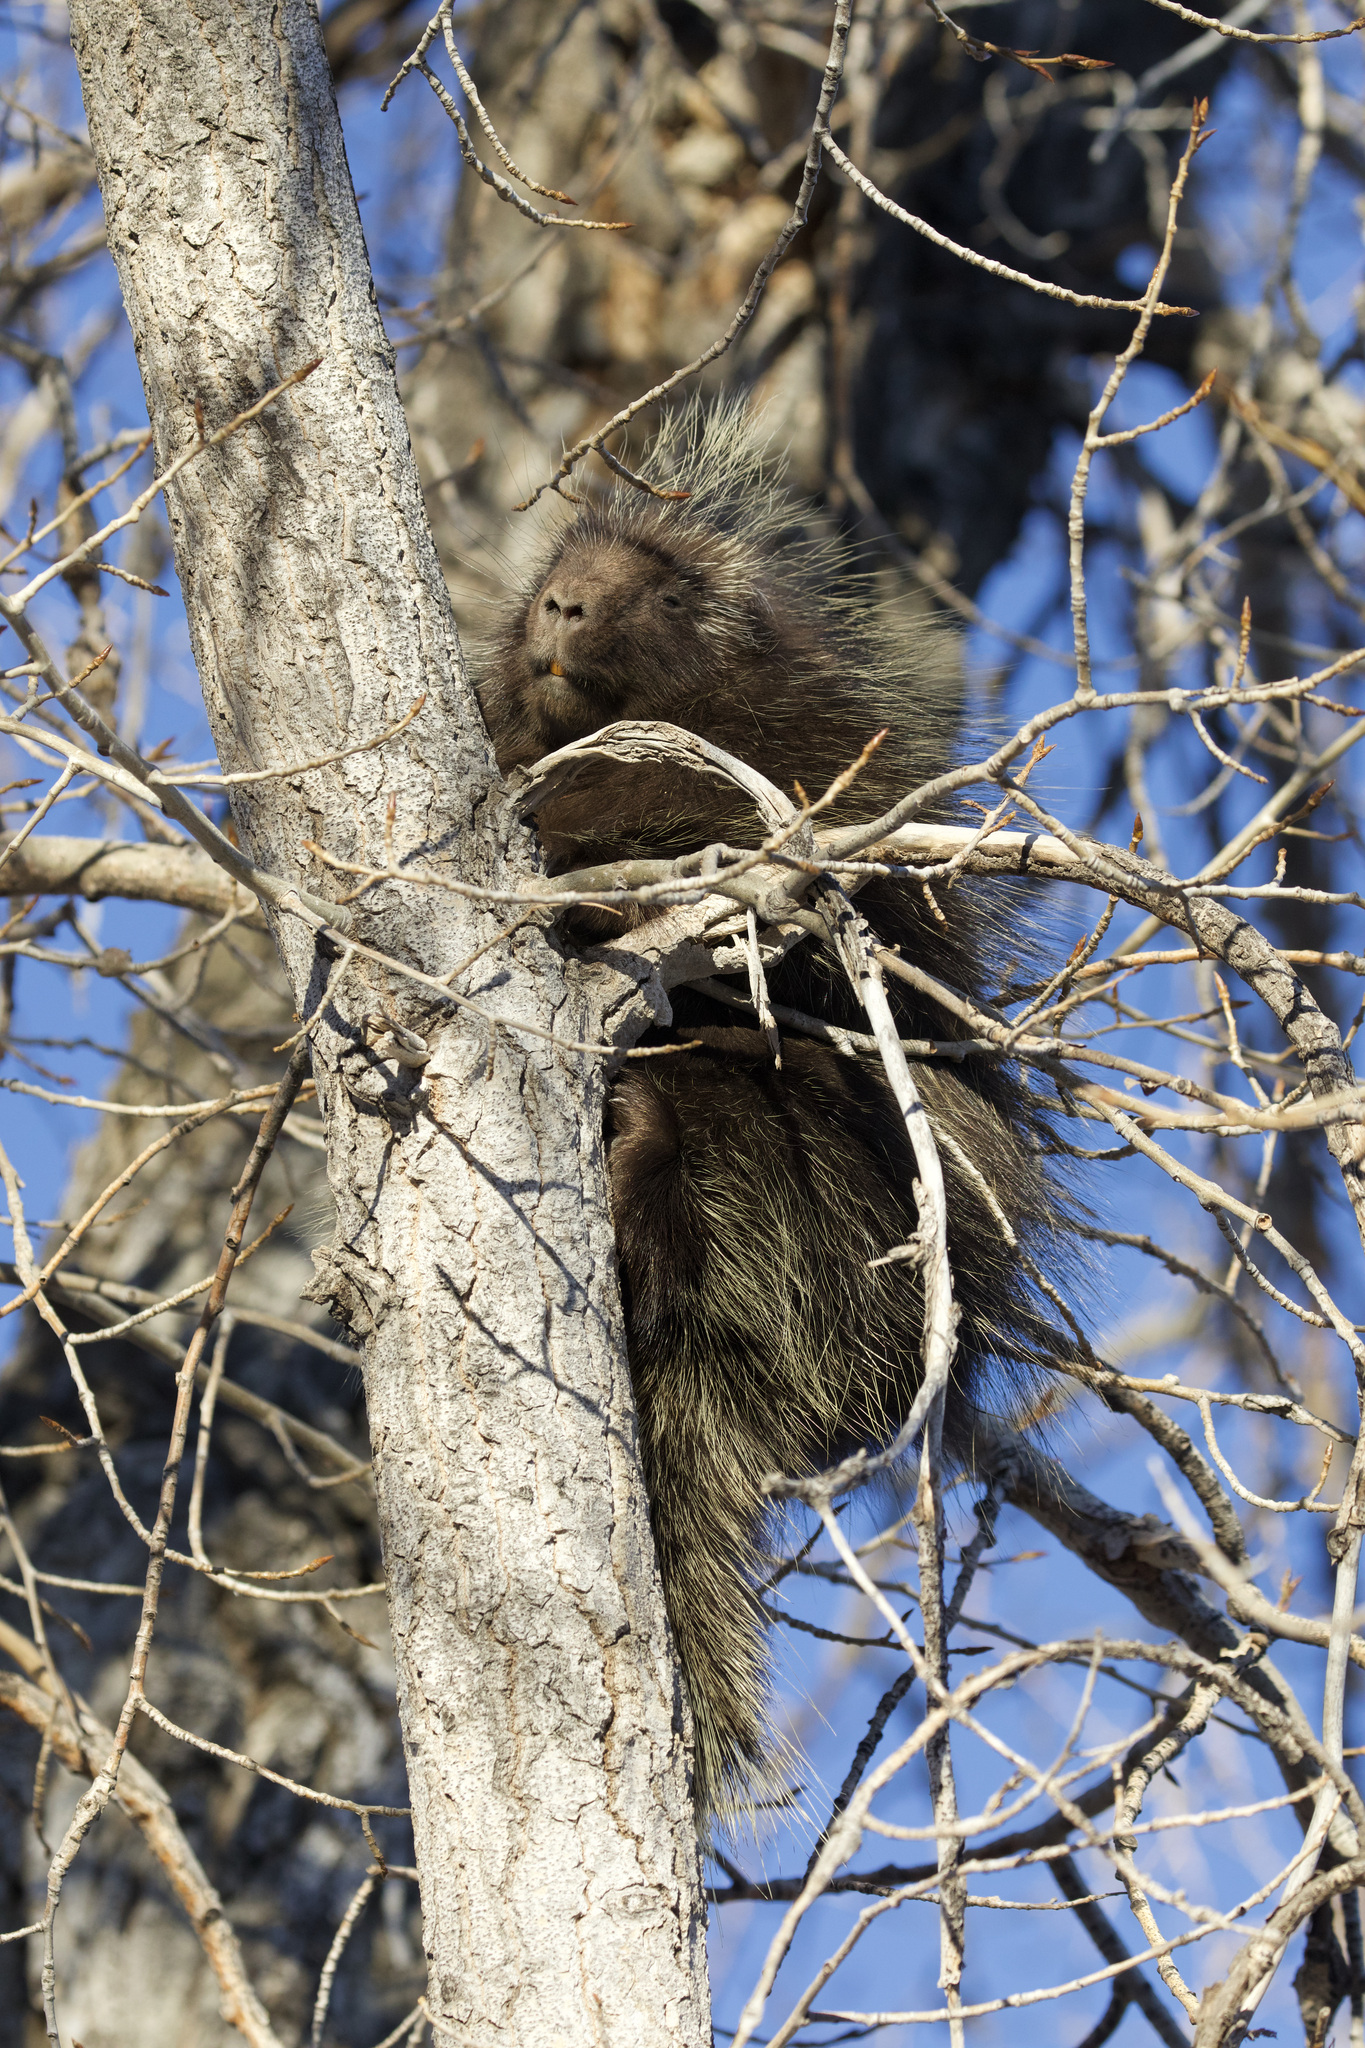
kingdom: Animalia
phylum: Chordata
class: Mammalia
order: Rodentia
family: Erethizontidae
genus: Erethizon
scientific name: Erethizon dorsatus
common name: North american porcupine
